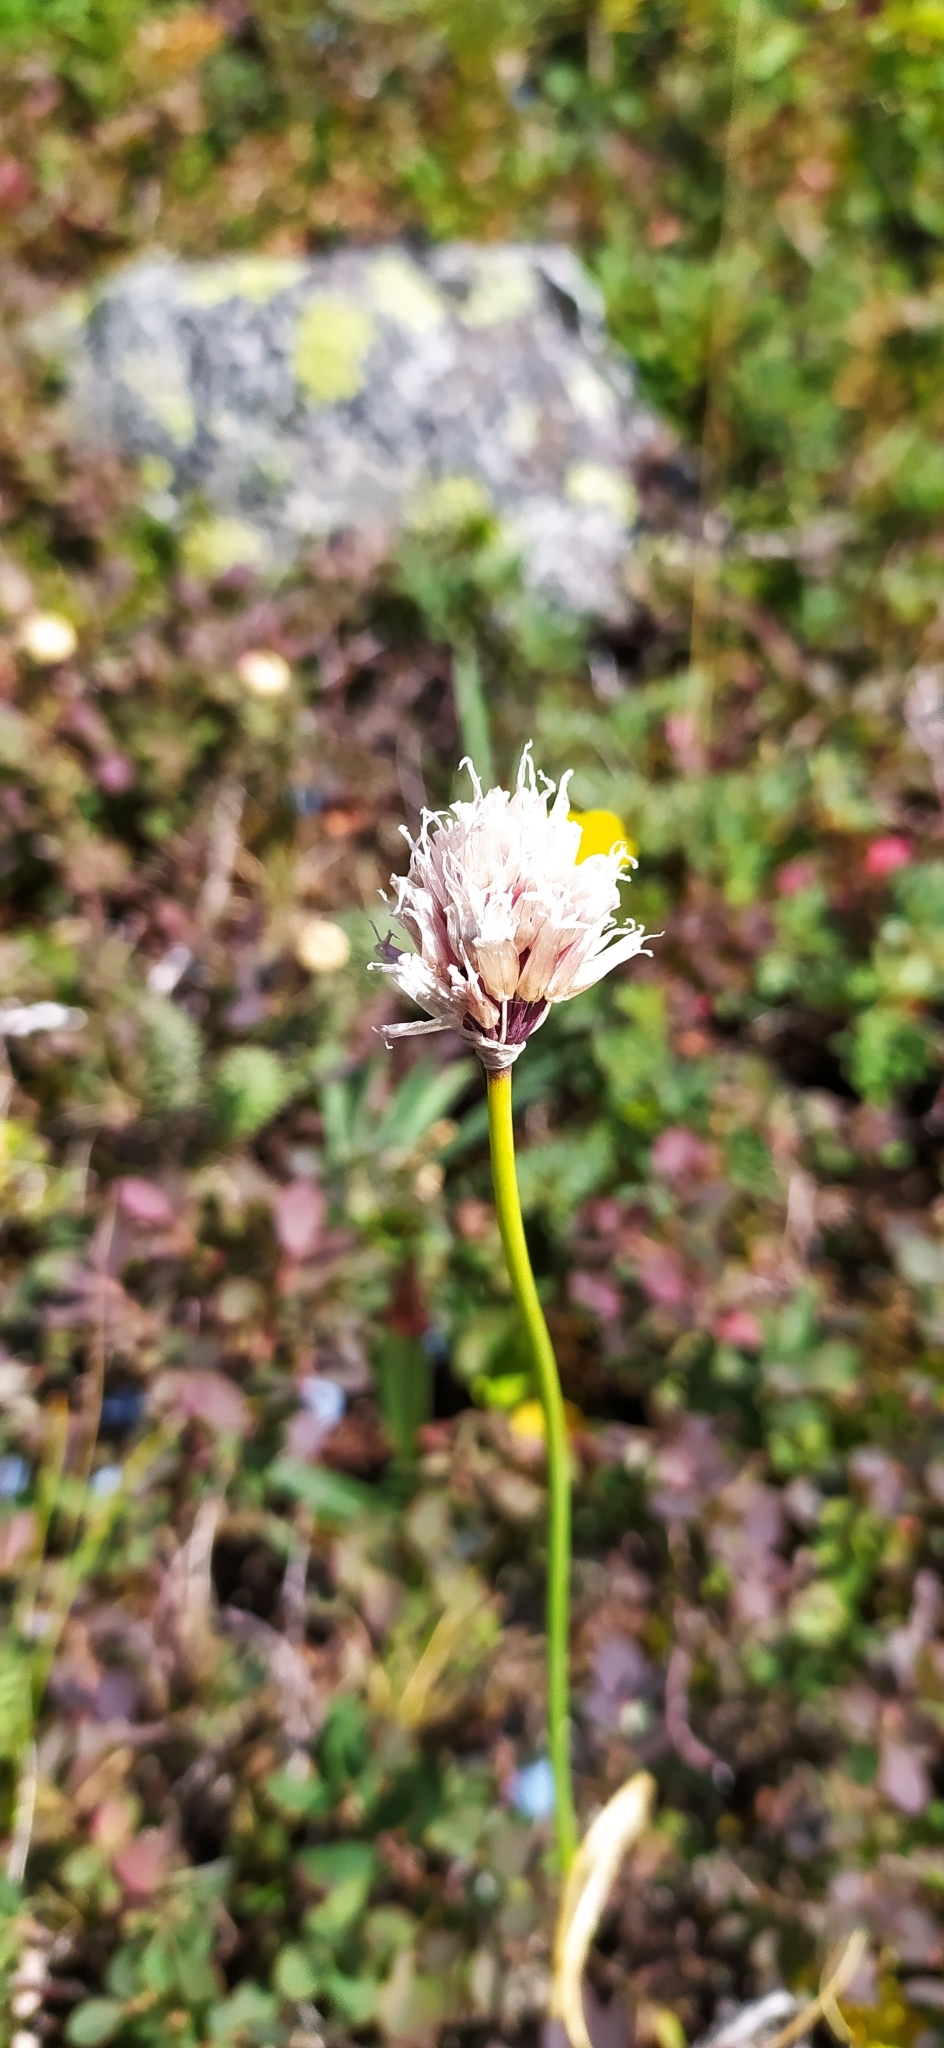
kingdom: Plantae
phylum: Tracheophyta
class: Liliopsida
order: Asparagales
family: Amaryllidaceae
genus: Allium
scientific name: Allium schoenoprasum
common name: Chives
